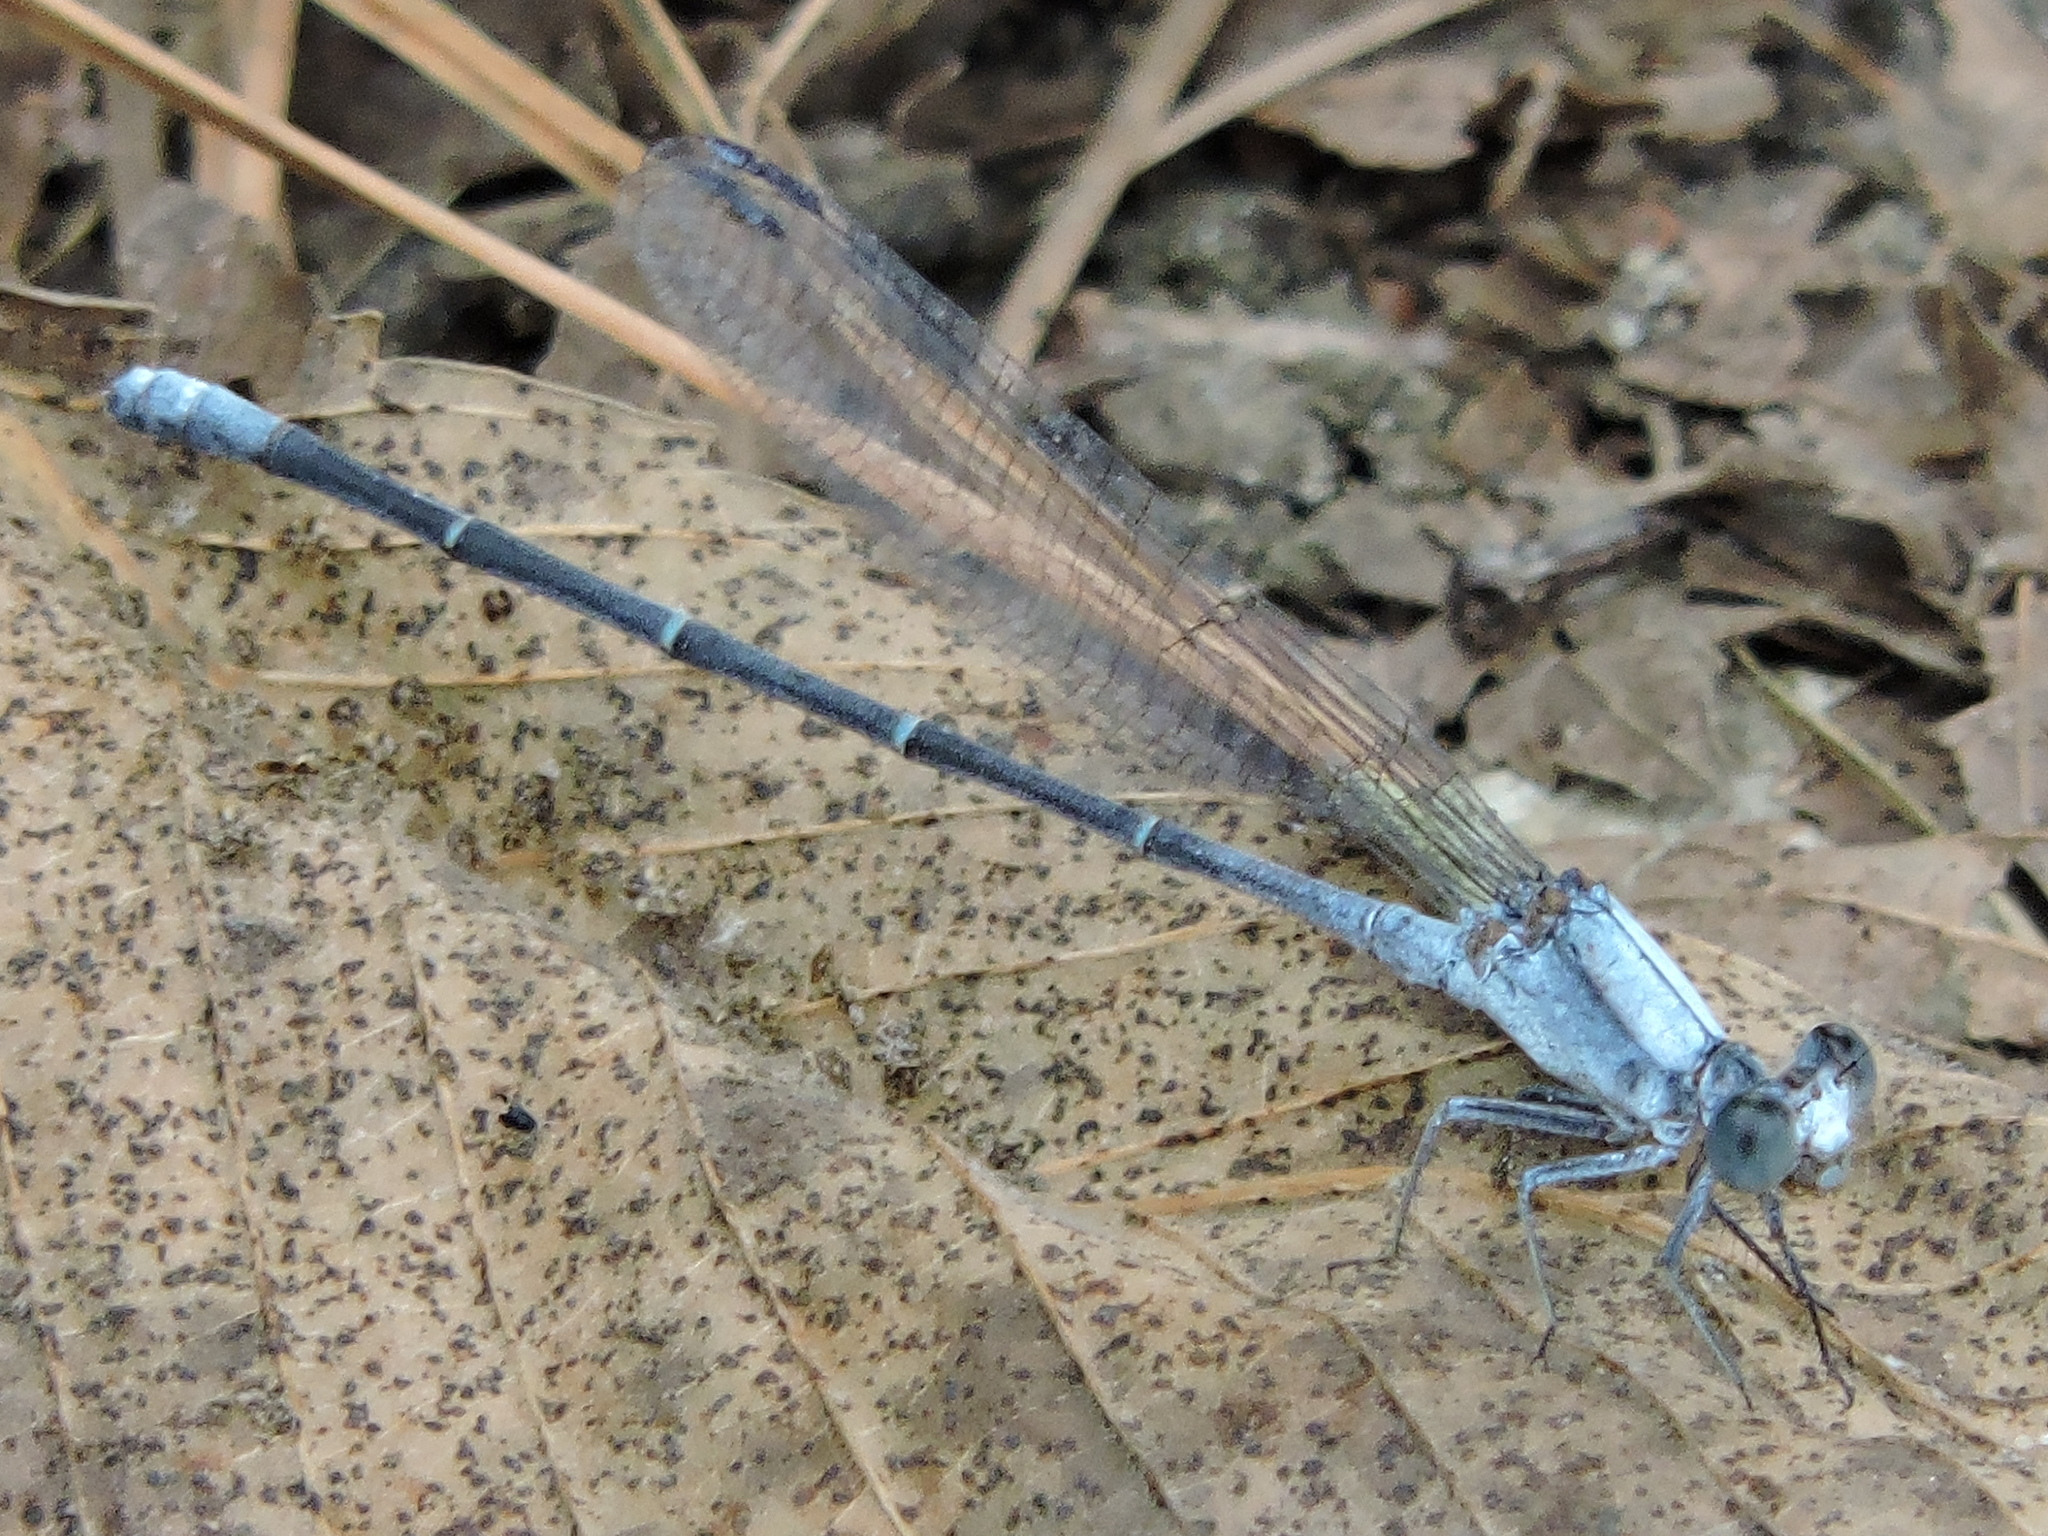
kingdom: Animalia
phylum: Arthropoda
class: Insecta
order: Odonata
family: Coenagrionidae
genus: Argia
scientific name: Argia moesta
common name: Powdered dancer
